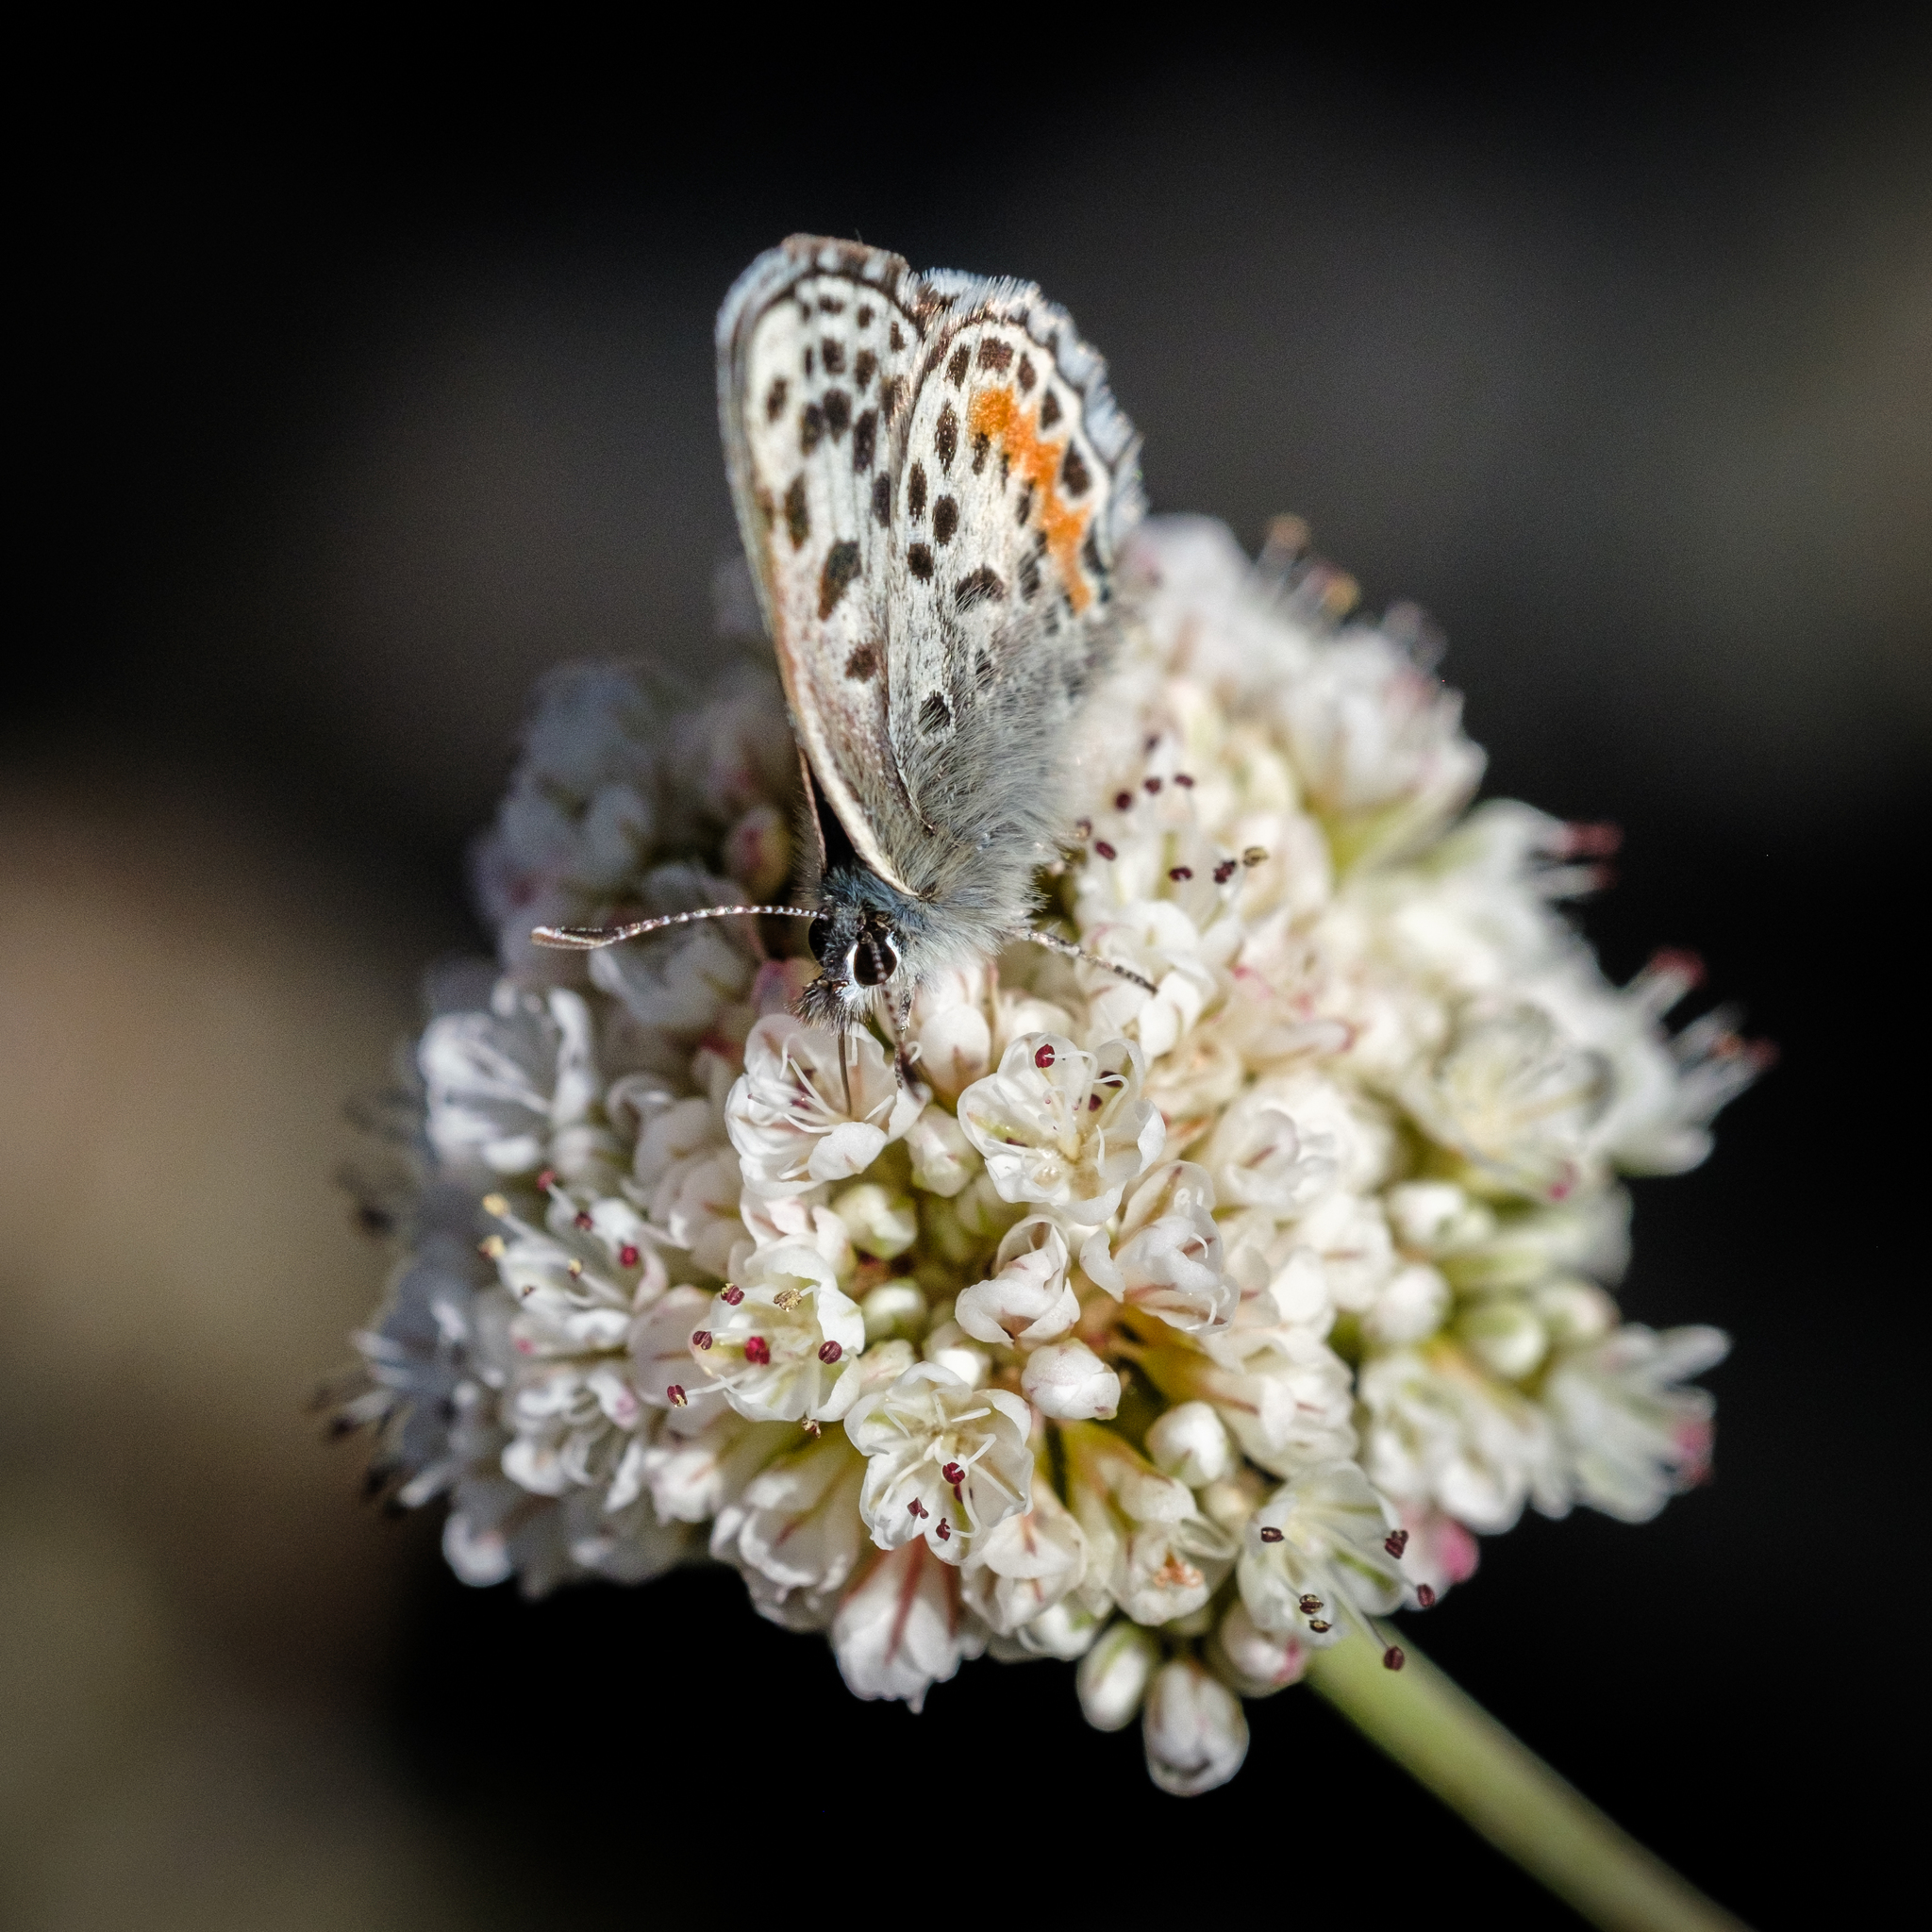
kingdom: Animalia
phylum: Arthropoda
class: Insecta
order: Lepidoptera
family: Lycaenidae
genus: Euphilotes
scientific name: Euphilotes battoides
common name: Square-spotted blue
